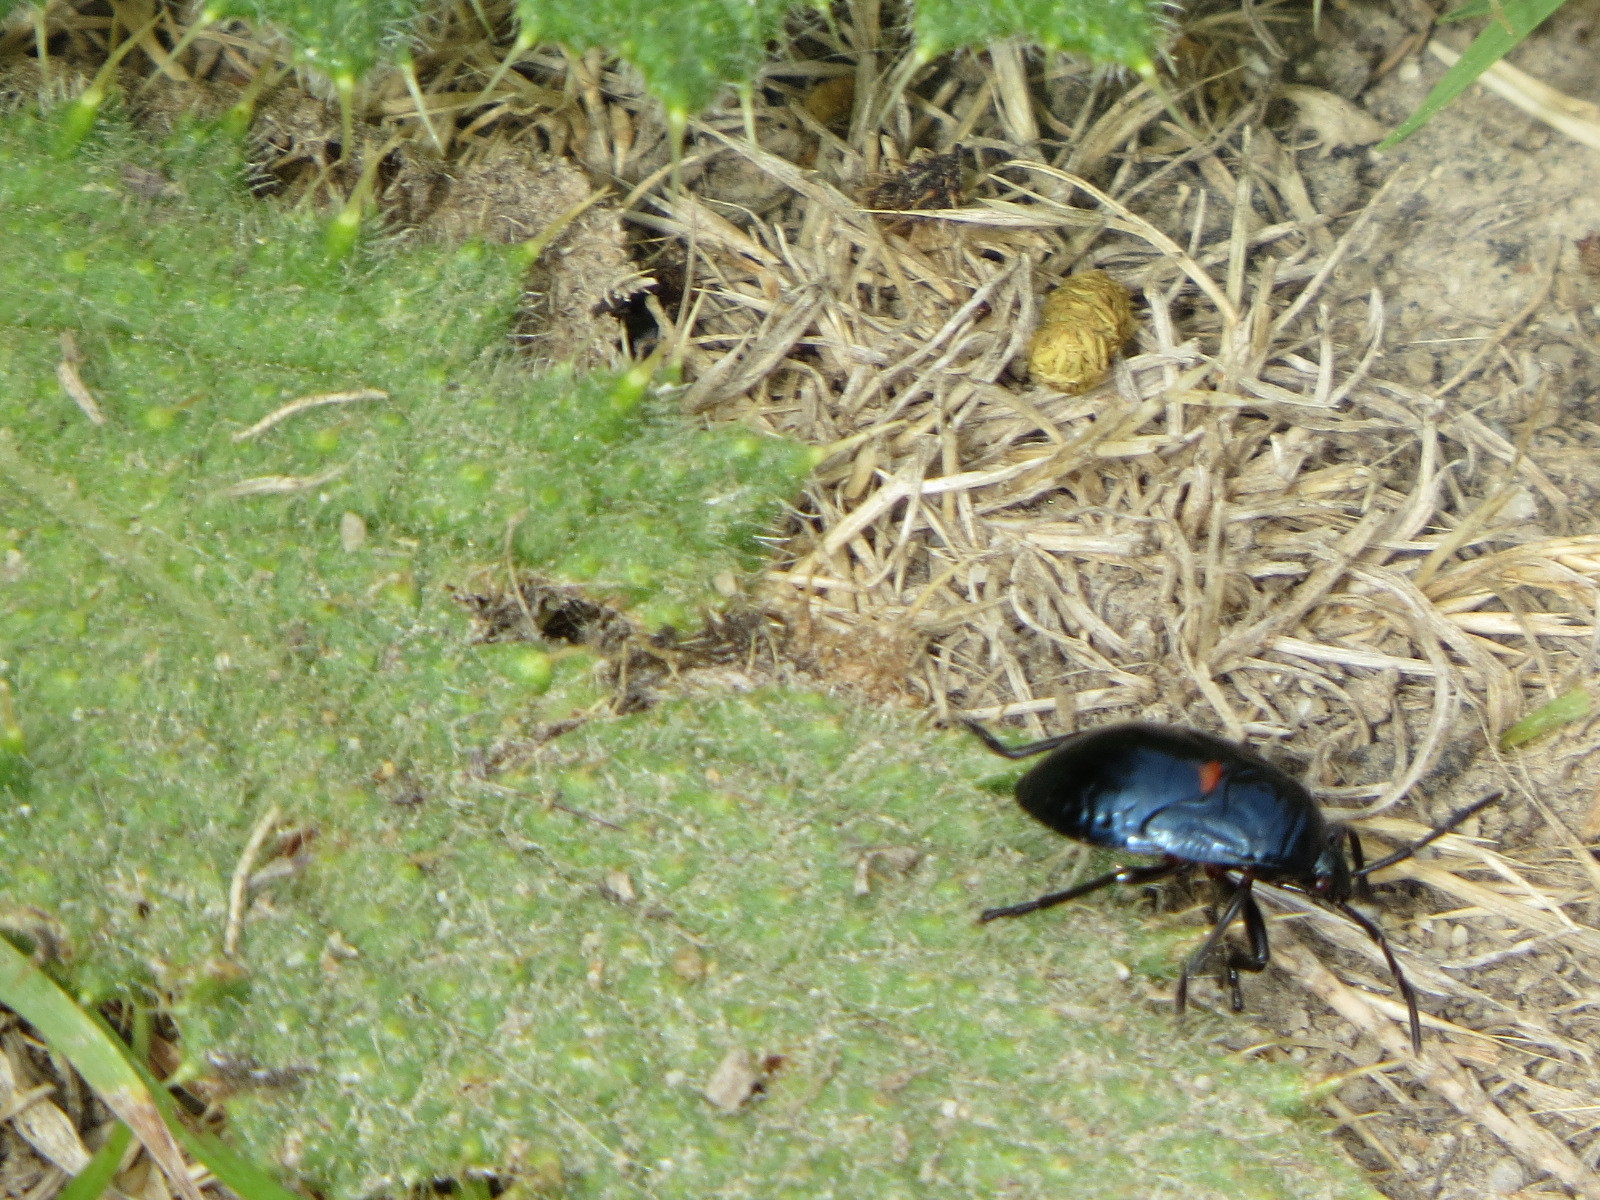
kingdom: Animalia
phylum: Arthropoda
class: Insecta
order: Hemiptera
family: Largidae
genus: Largus
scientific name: Largus californicus
